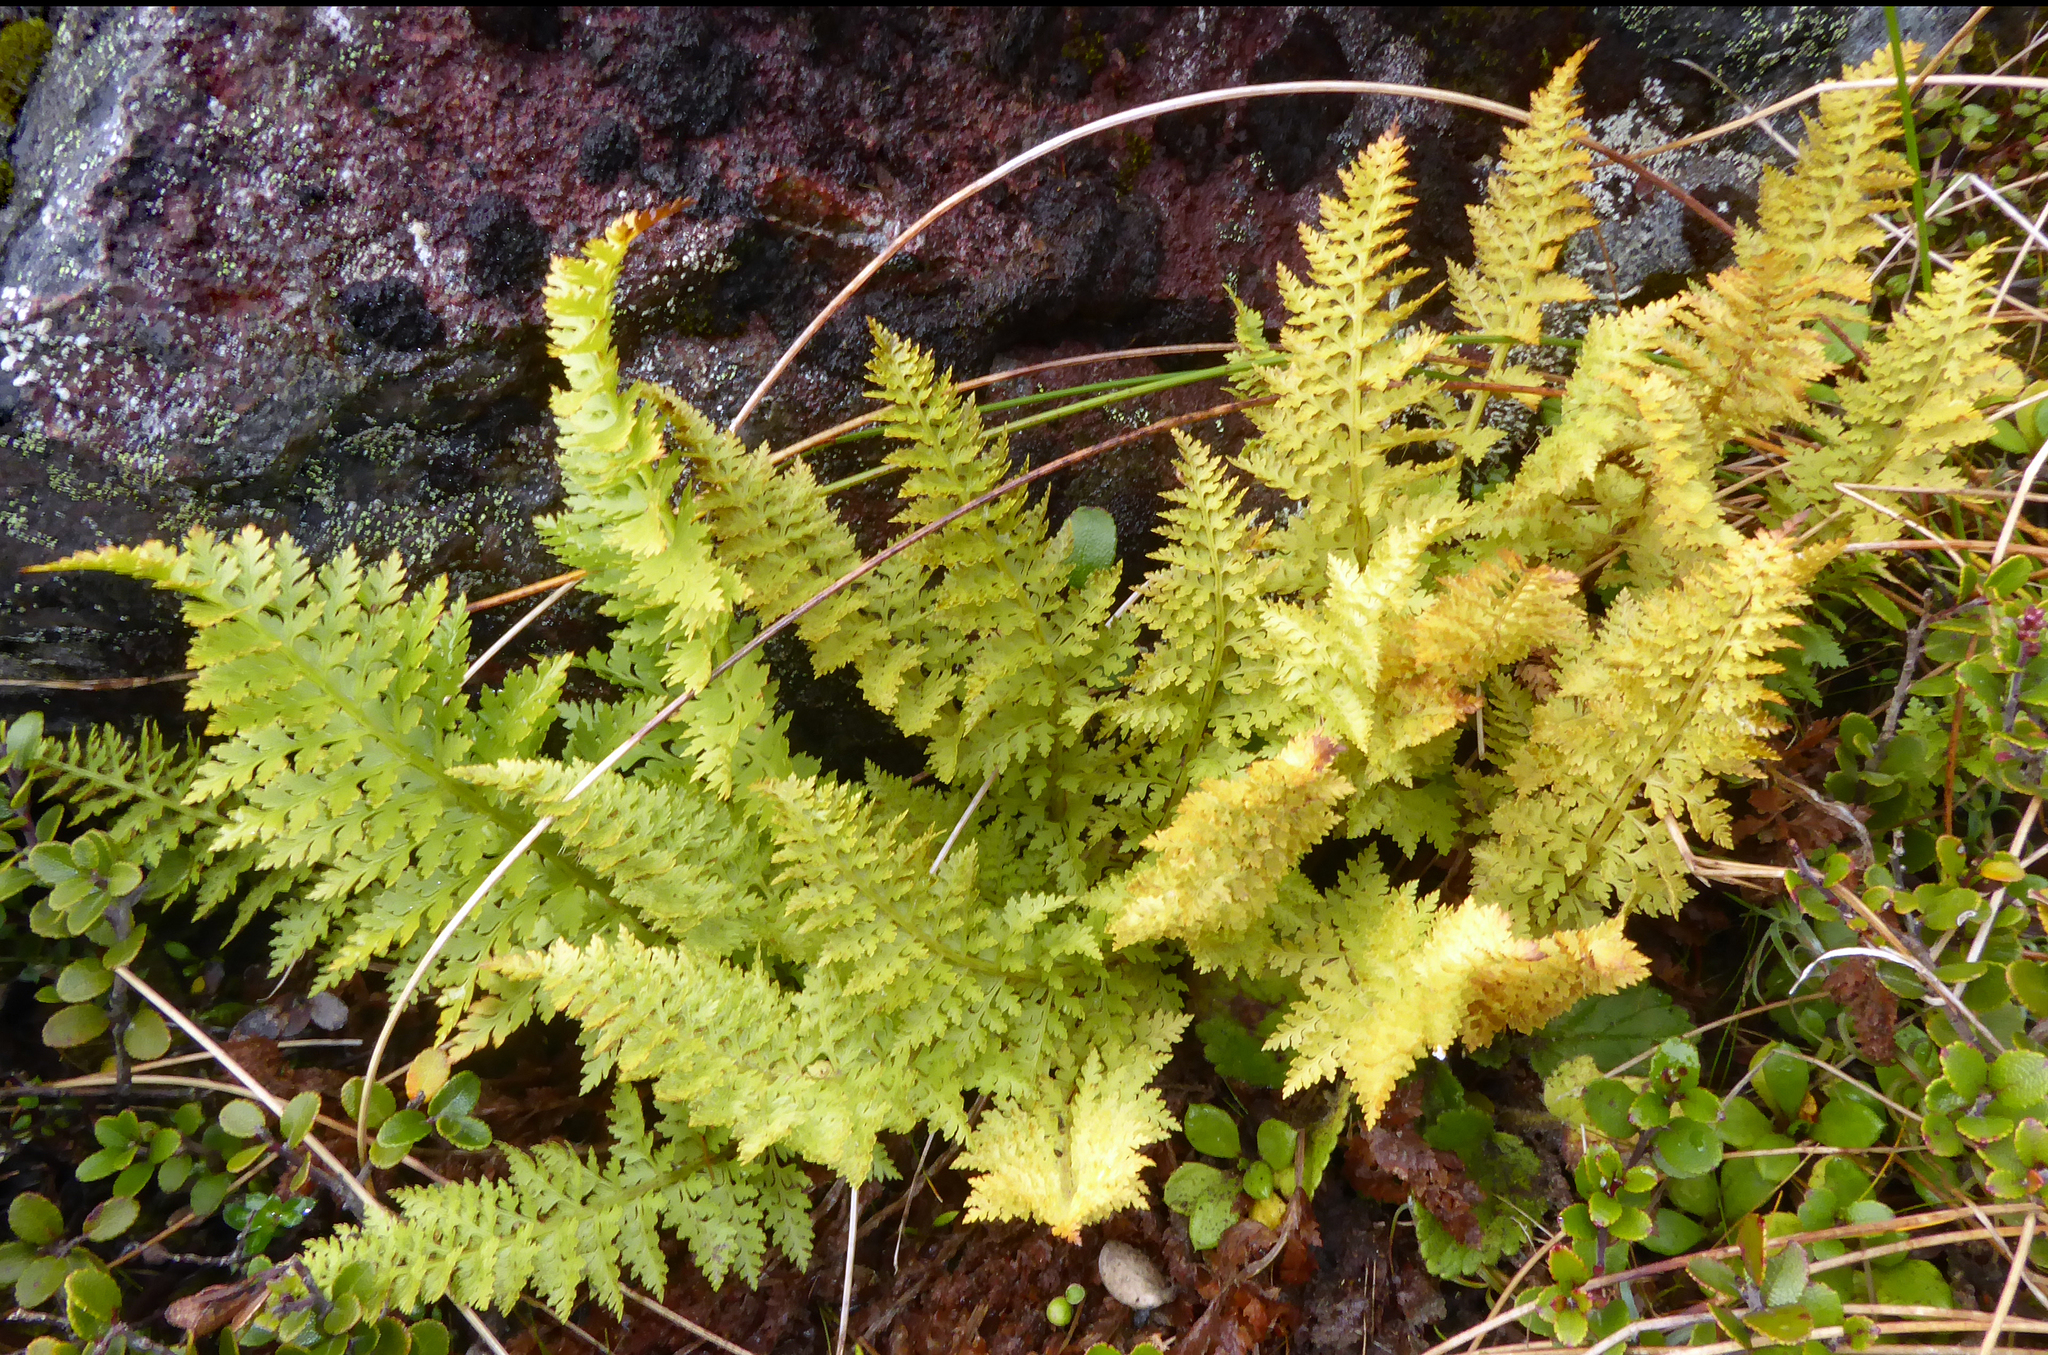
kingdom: Plantae
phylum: Tracheophyta
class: Polypodiopsida
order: Polypodiales
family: Dryopteridaceae
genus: Polystichum
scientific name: Polystichum cystostegia
